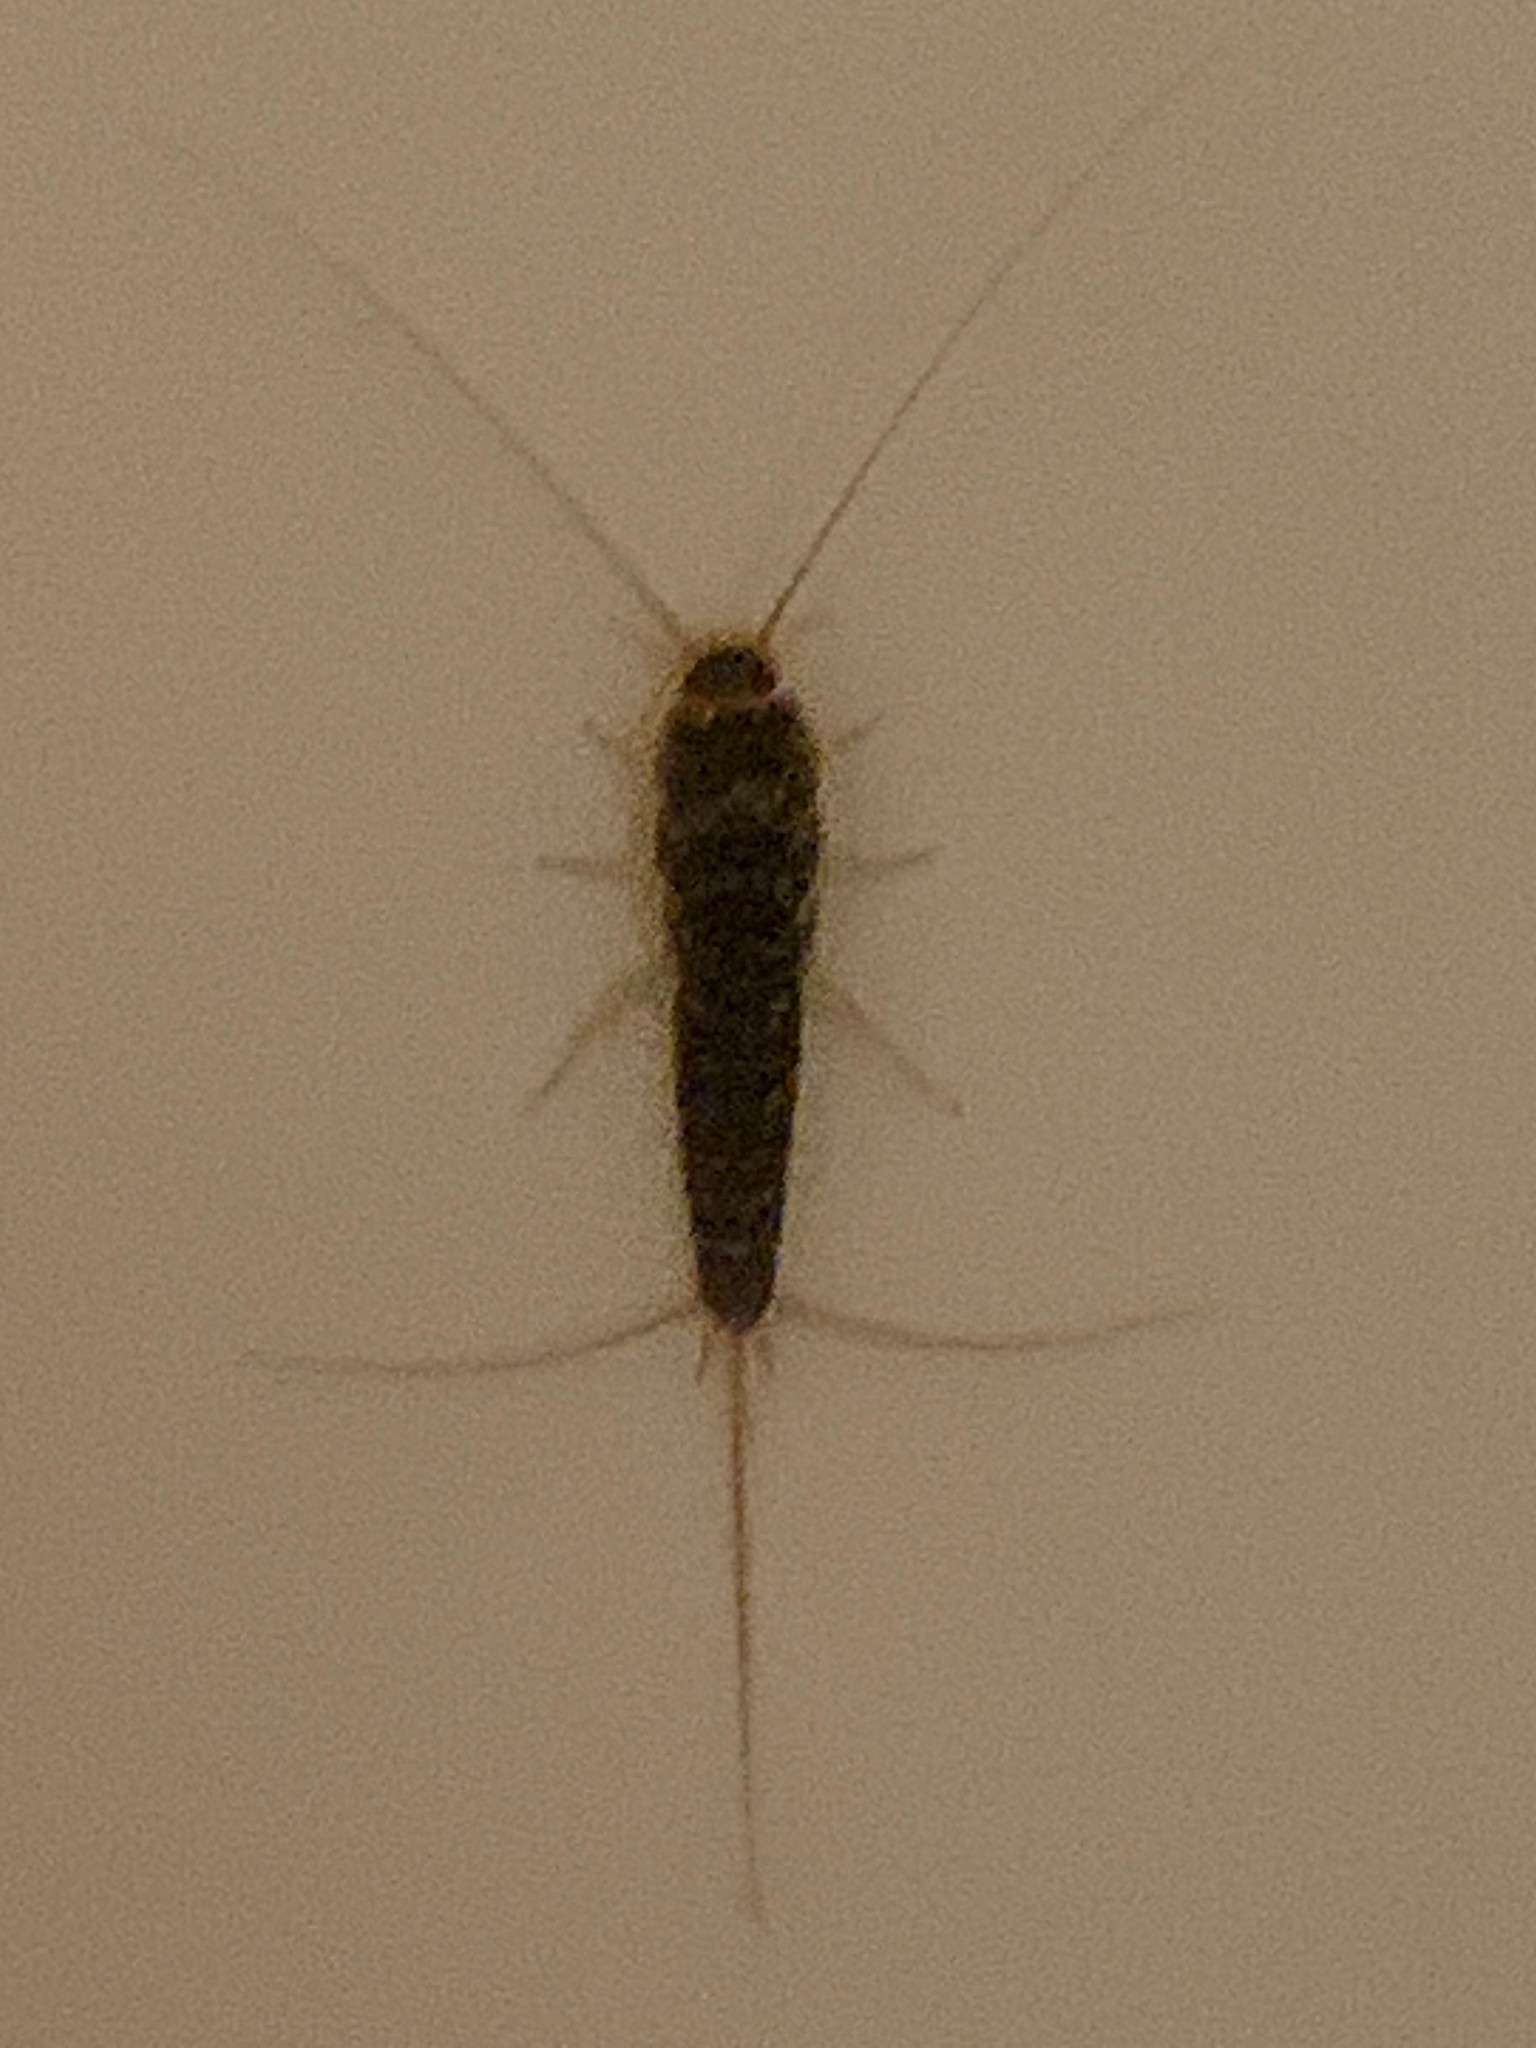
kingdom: Animalia
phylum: Arthropoda
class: Insecta
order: Zygentoma
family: Lepismatidae
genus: Ctenolepisma
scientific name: Ctenolepisma longicaudatum
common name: Silverfish
